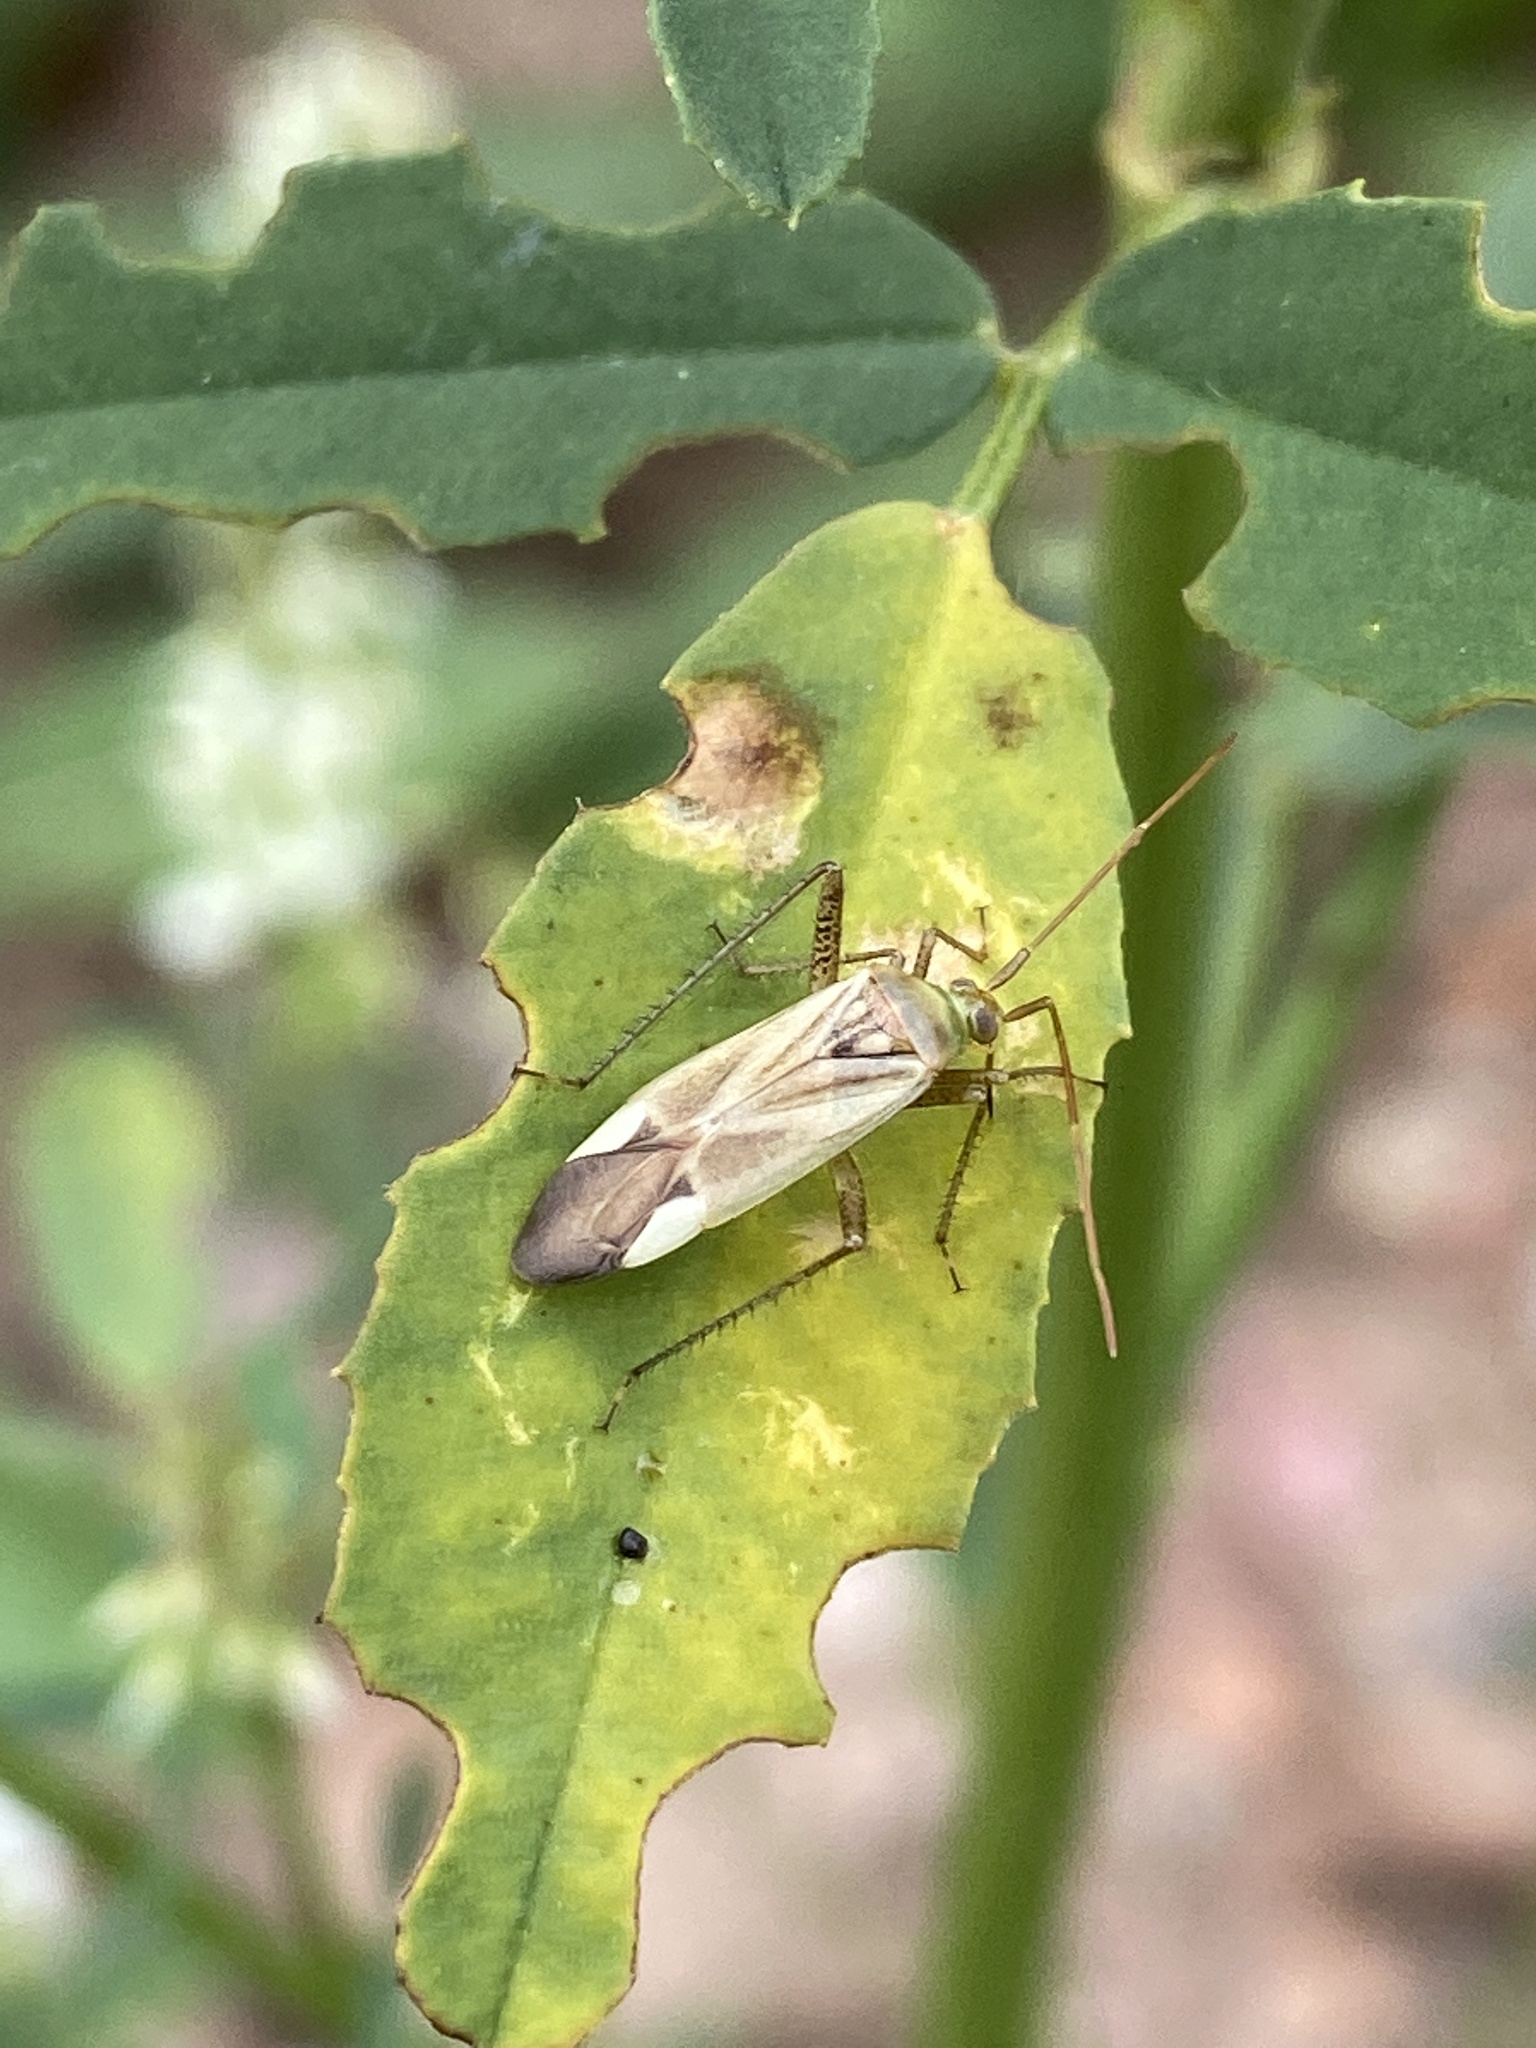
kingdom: Animalia
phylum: Arthropoda
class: Insecta
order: Hemiptera
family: Miridae
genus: Adelphocoris
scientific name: Adelphocoris lineolatus
